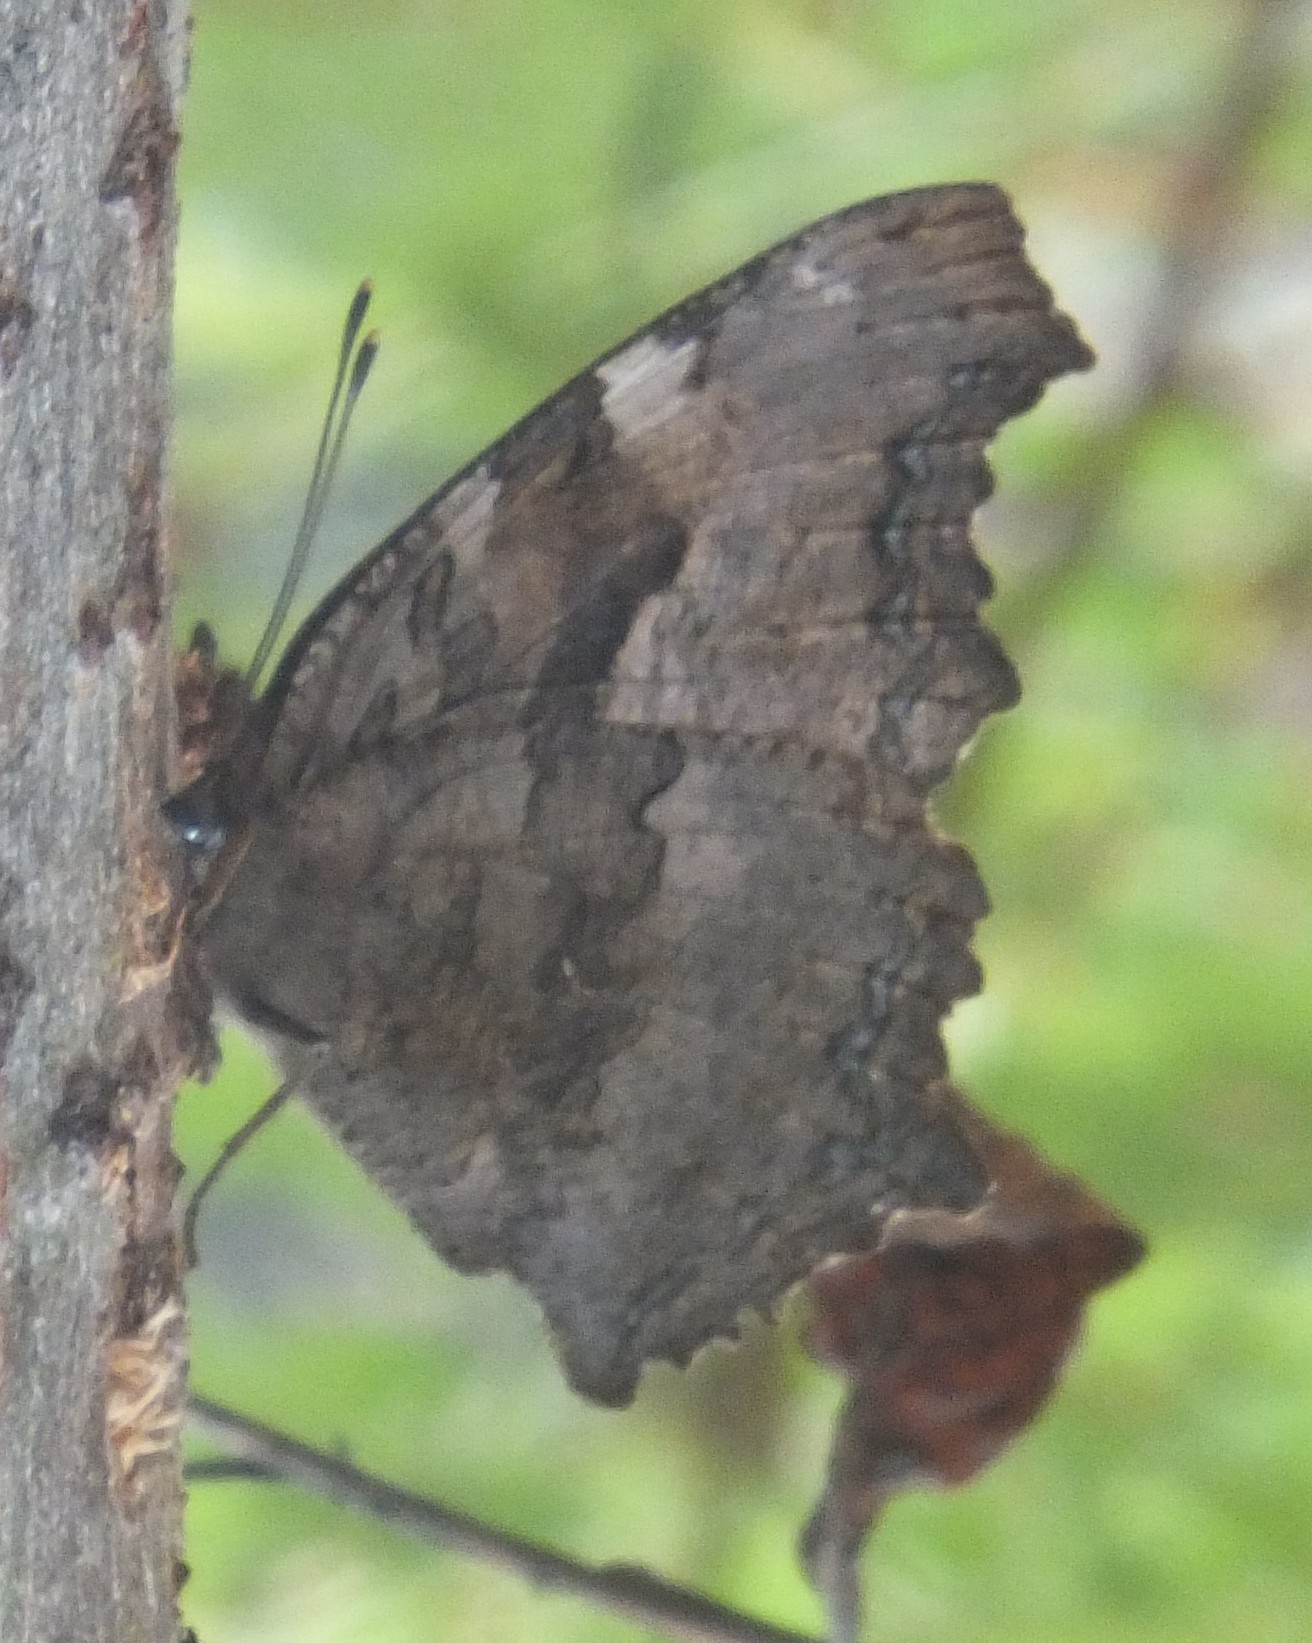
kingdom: Animalia
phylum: Arthropoda
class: Insecta
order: Lepidoptera
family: Nymphalidae
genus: Polygonia
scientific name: Polygonia vaualbum
